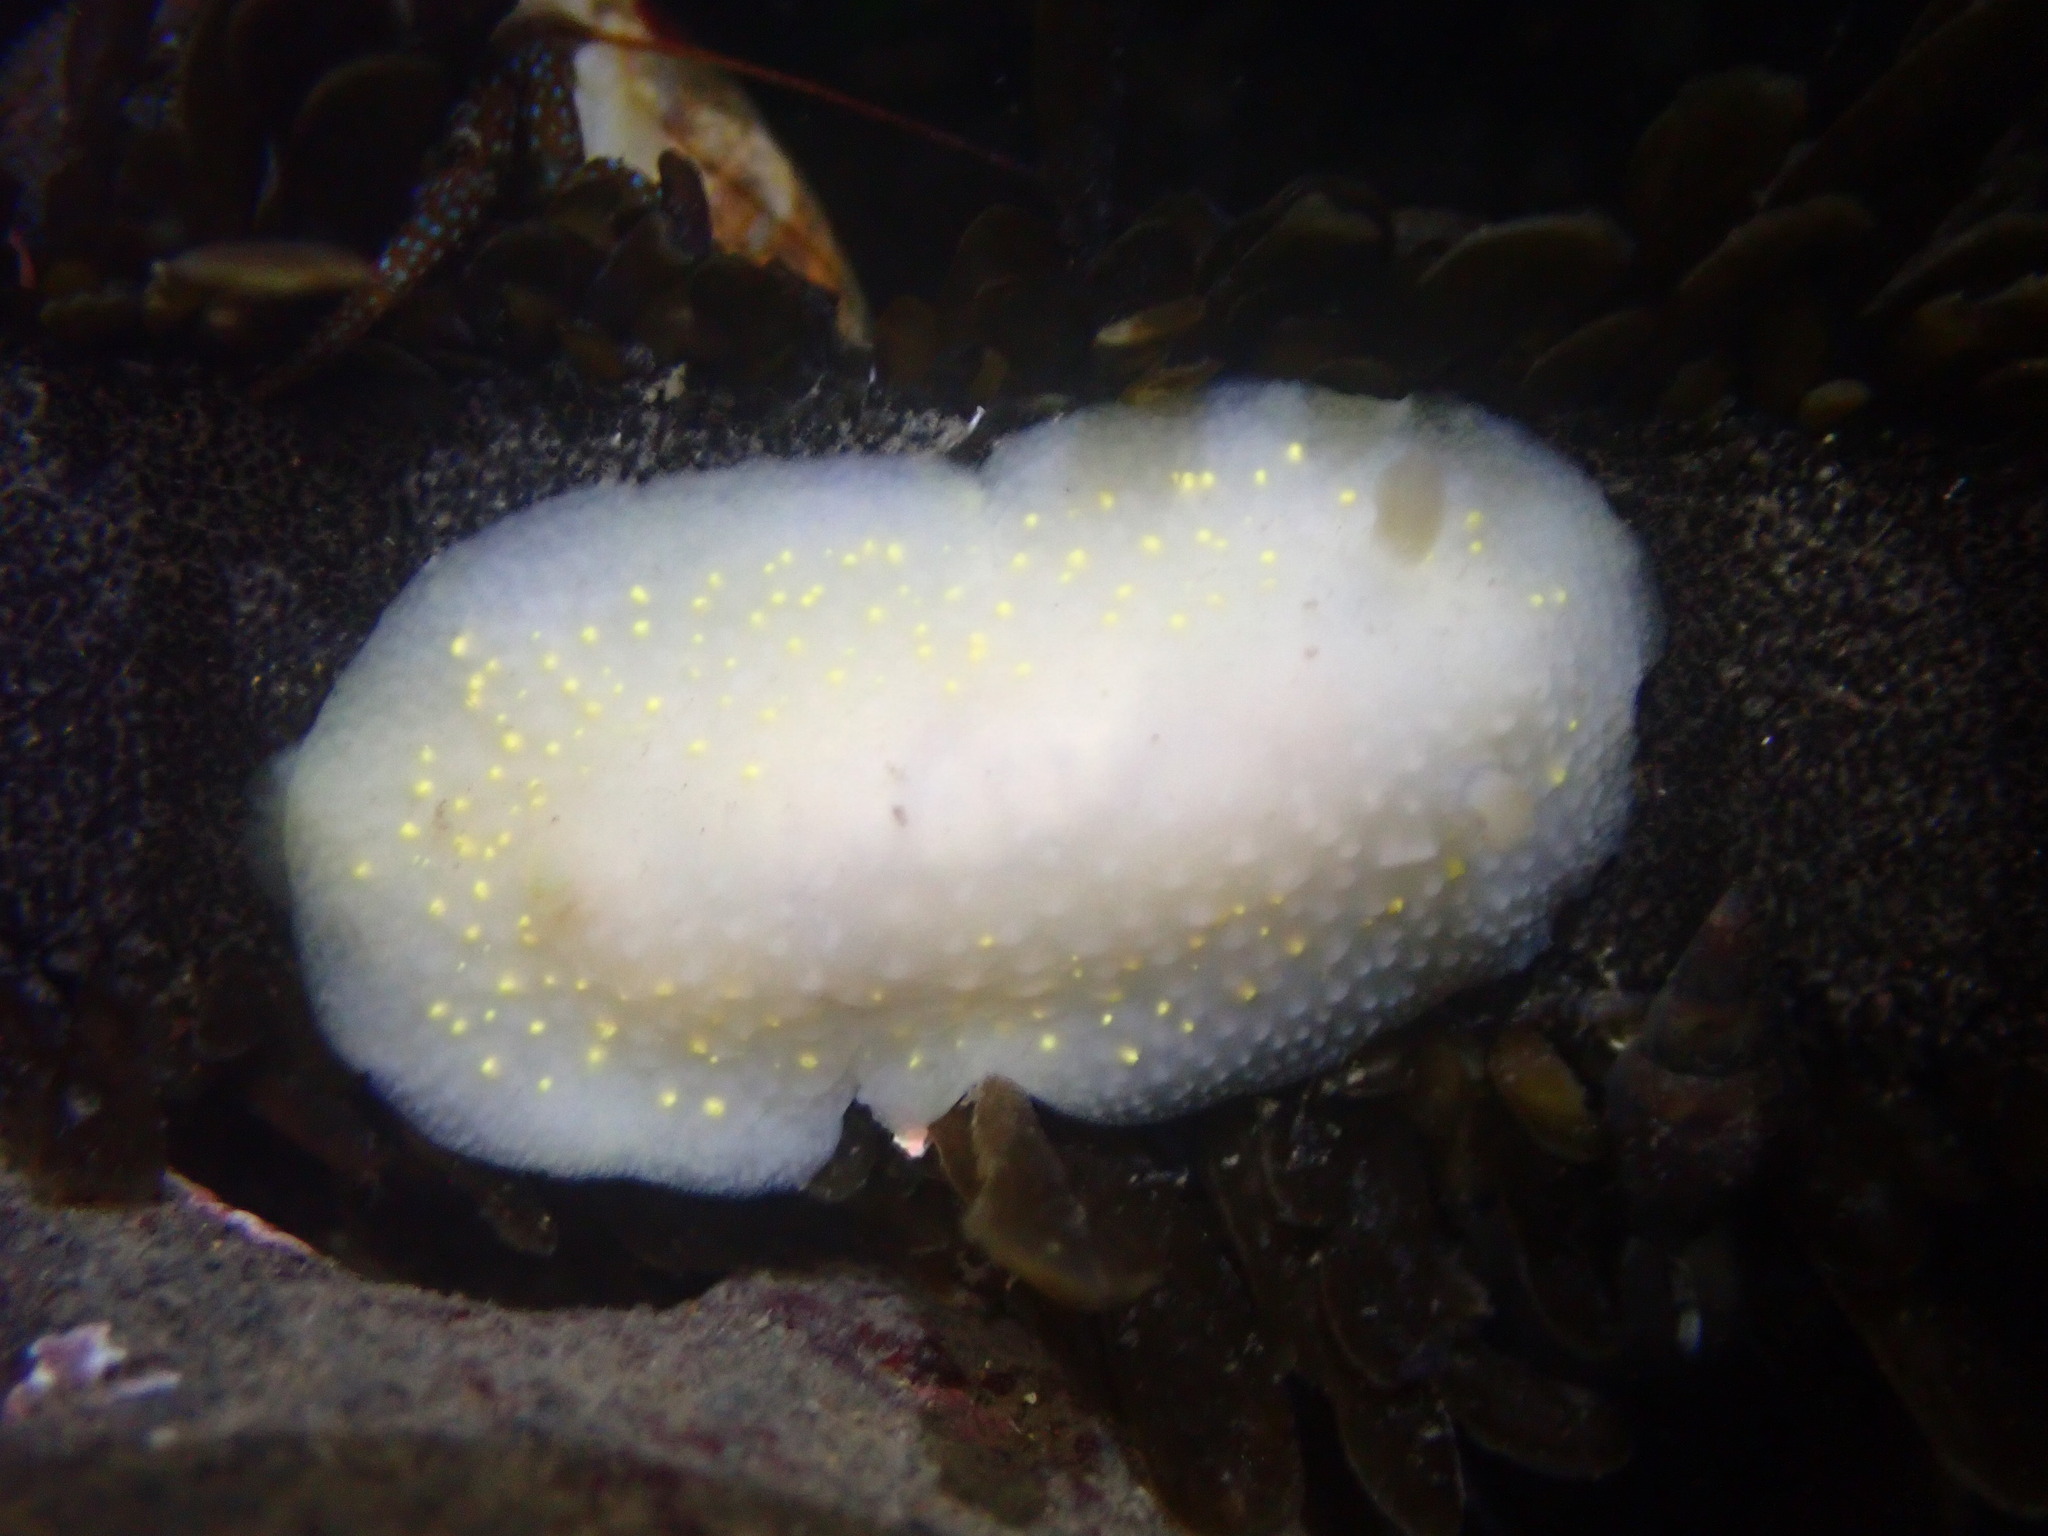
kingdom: Animalia
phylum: Mollusca
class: Gastropoda
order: Nudibranchia
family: Cadlinidae
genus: Cadlina
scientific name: Cadlina modesta
